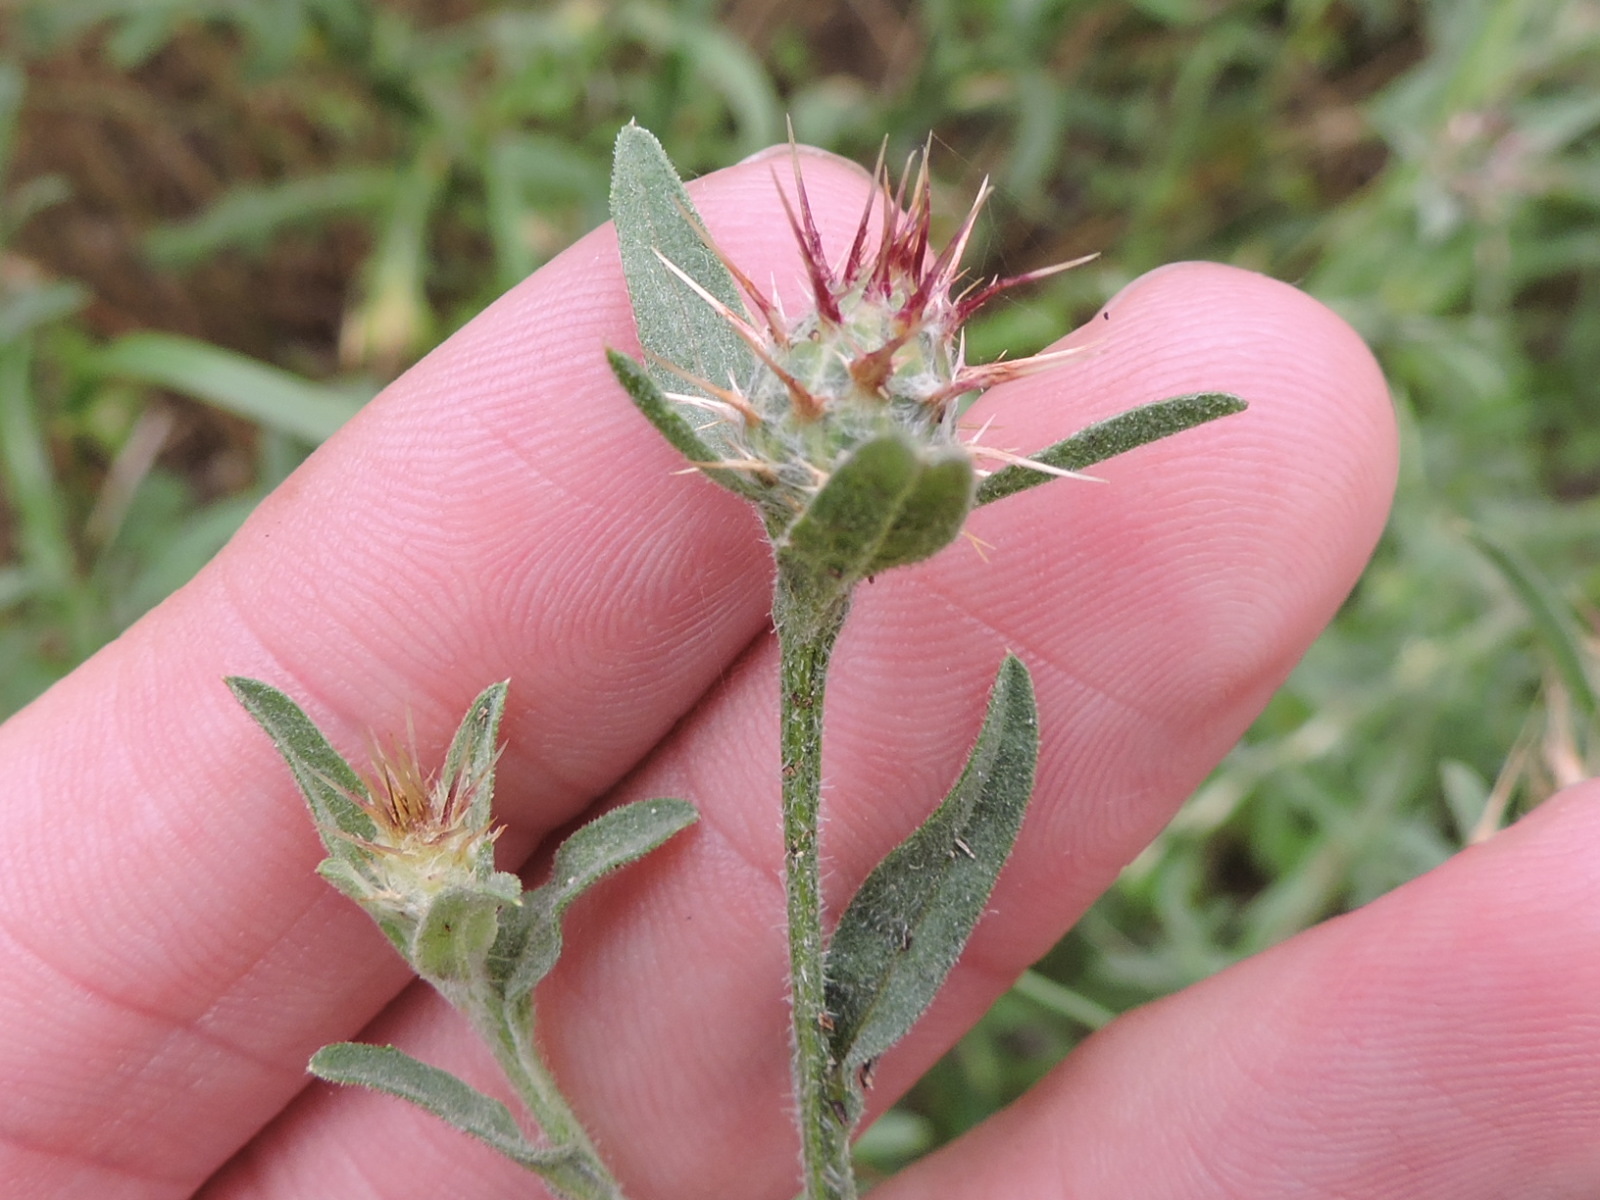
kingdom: Plantae
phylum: Tracheophyta
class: Magnoliopsida
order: Asterales
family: Asteraceae
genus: Centaurea
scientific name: Centaurea melitensis
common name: Maltese star-thistle
